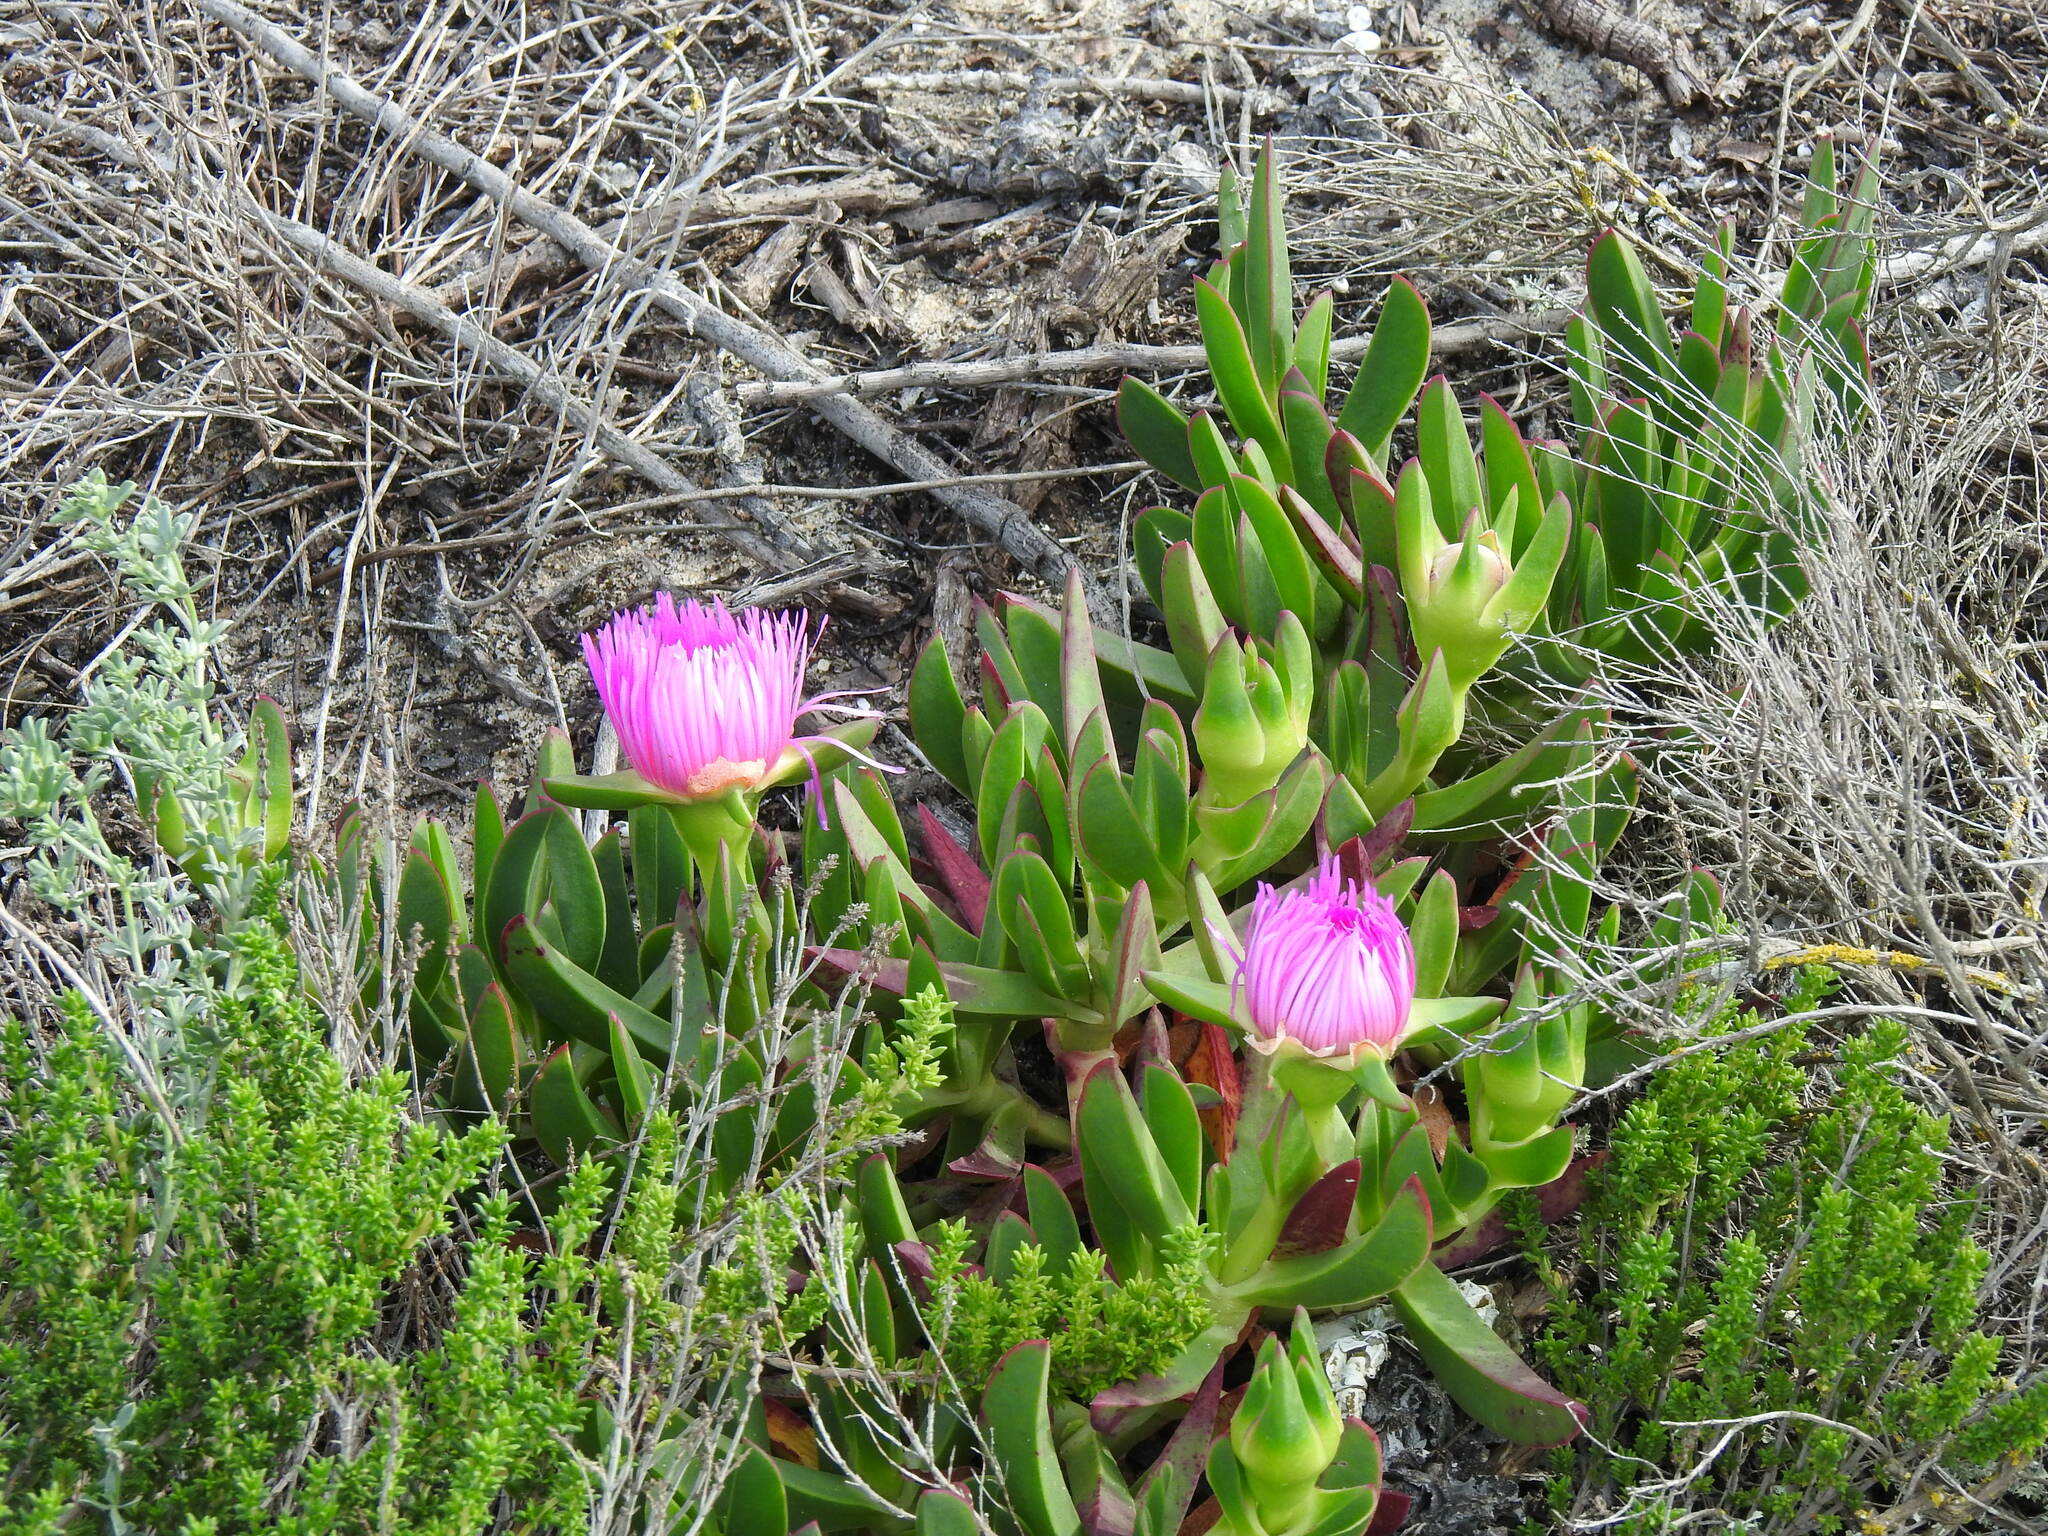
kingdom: Plantae
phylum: Tracheophyta
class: Magnoliopsida
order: Caryophyllales
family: Aizoaceae
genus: Carpobrotus
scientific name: Carpobrotus acinaciformis
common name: Sally-my-handsome
